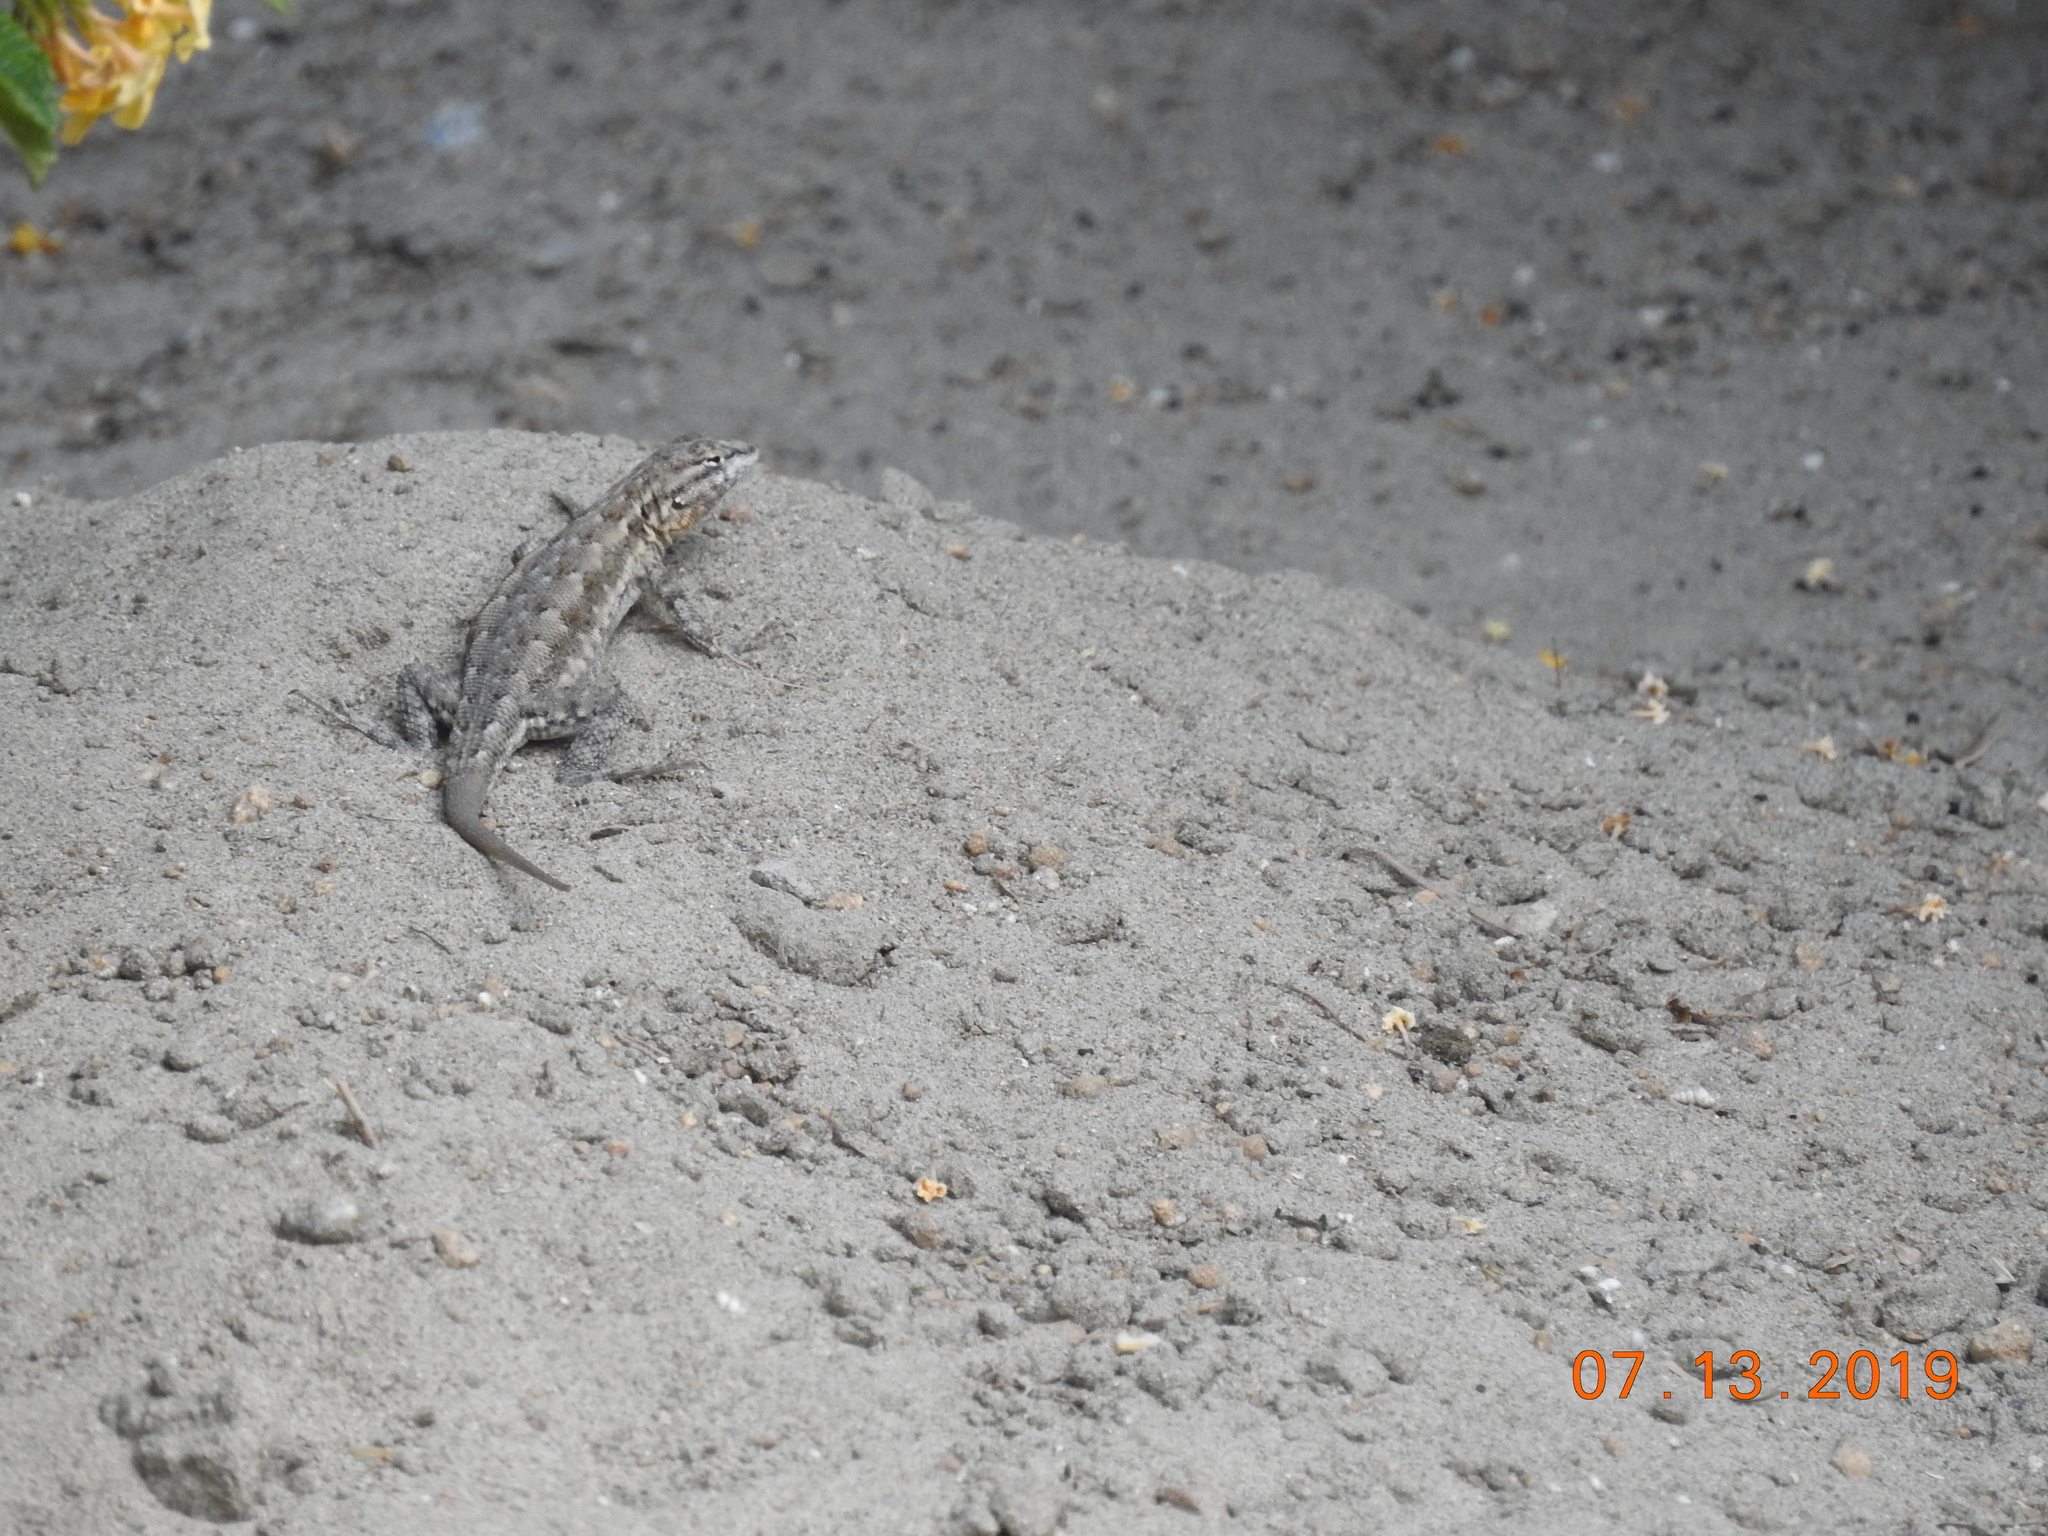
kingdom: Animalia
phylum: Chordata
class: Squamata
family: Phrynosomatidae
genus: Uta
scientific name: Uta stansburiana
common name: Side-blotched lizard
